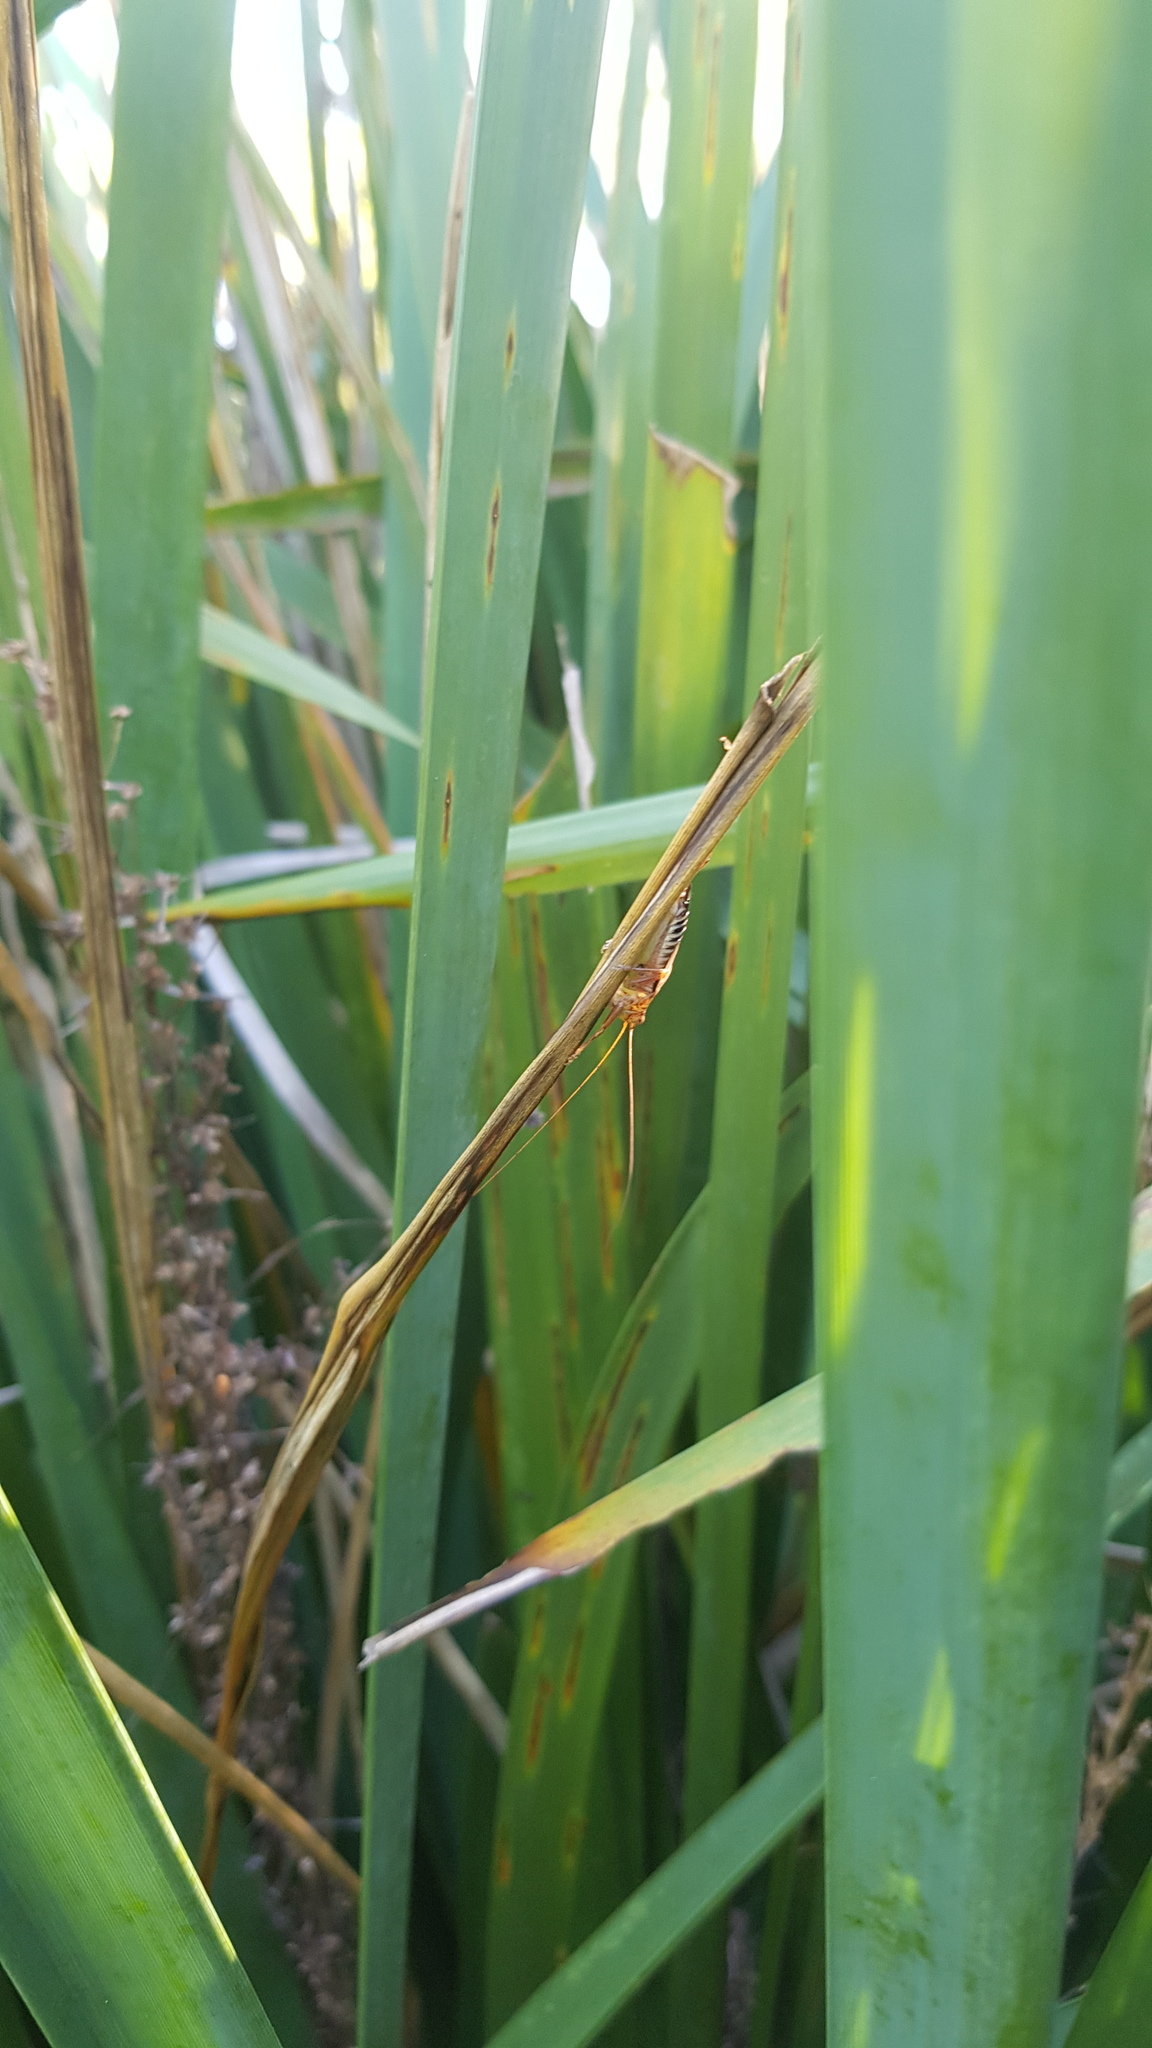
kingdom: Animalia
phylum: Arthropoda
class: Insecta
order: Orthoptera
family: Tettigoniidae
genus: Conocephalus
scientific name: Conocephalus semivittatus
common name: Blackish meadow katydid
